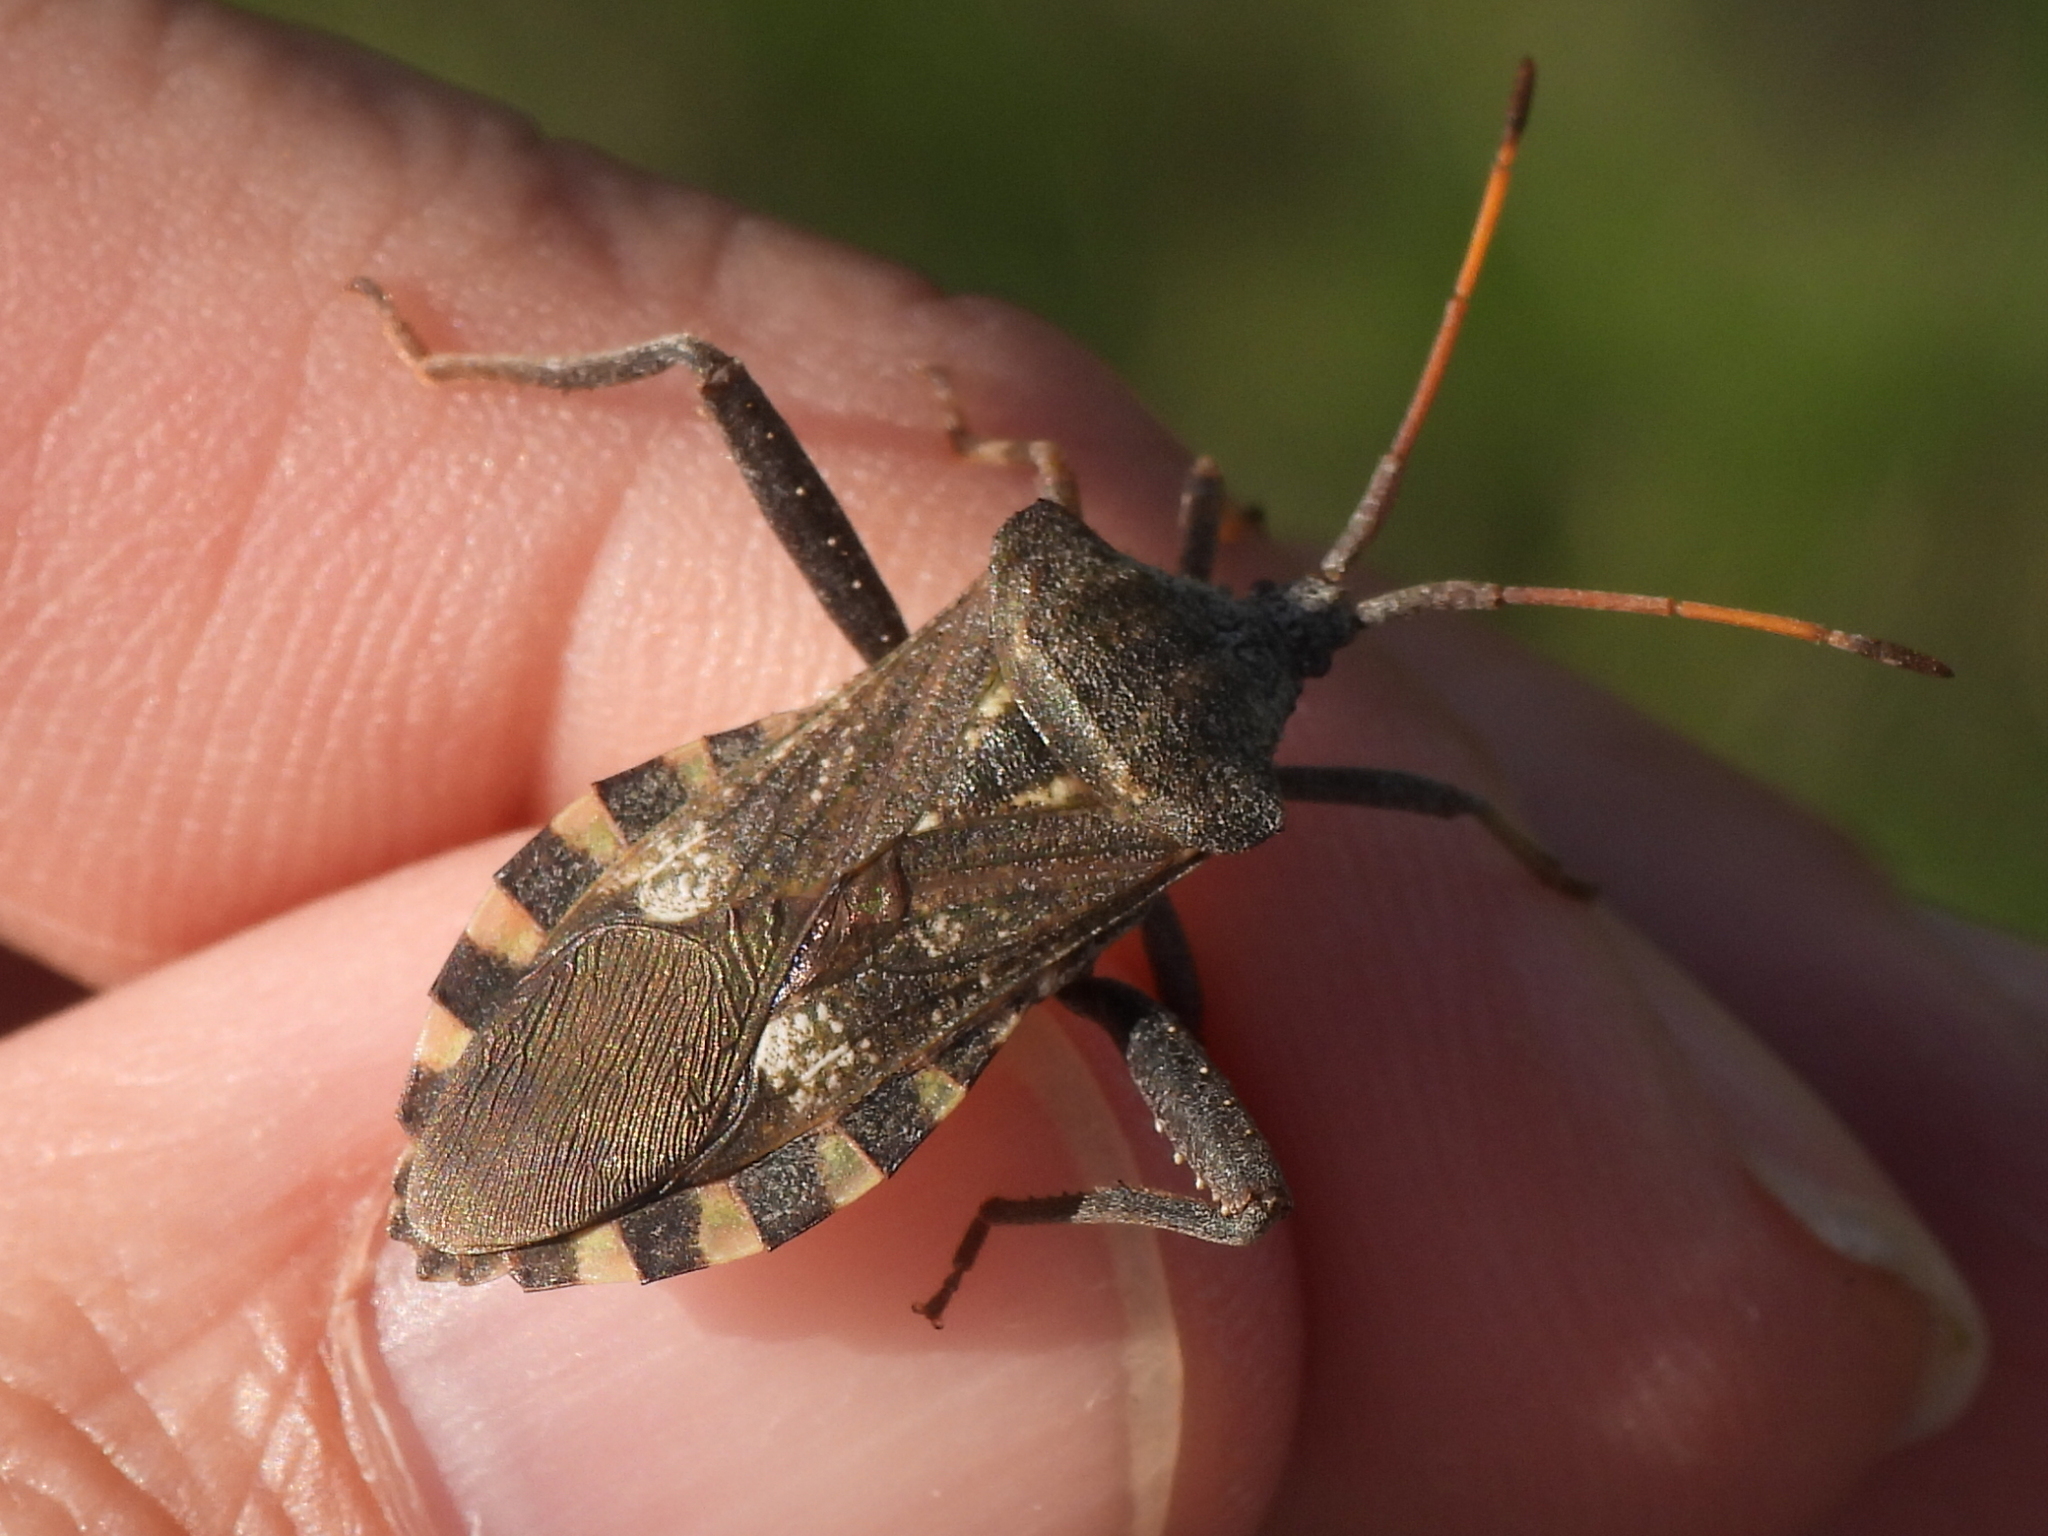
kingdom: Animalia
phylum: Arthropoda
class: Insecta
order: Hemiptera
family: Coreidae
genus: Mozena
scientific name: Mozena obtusa
